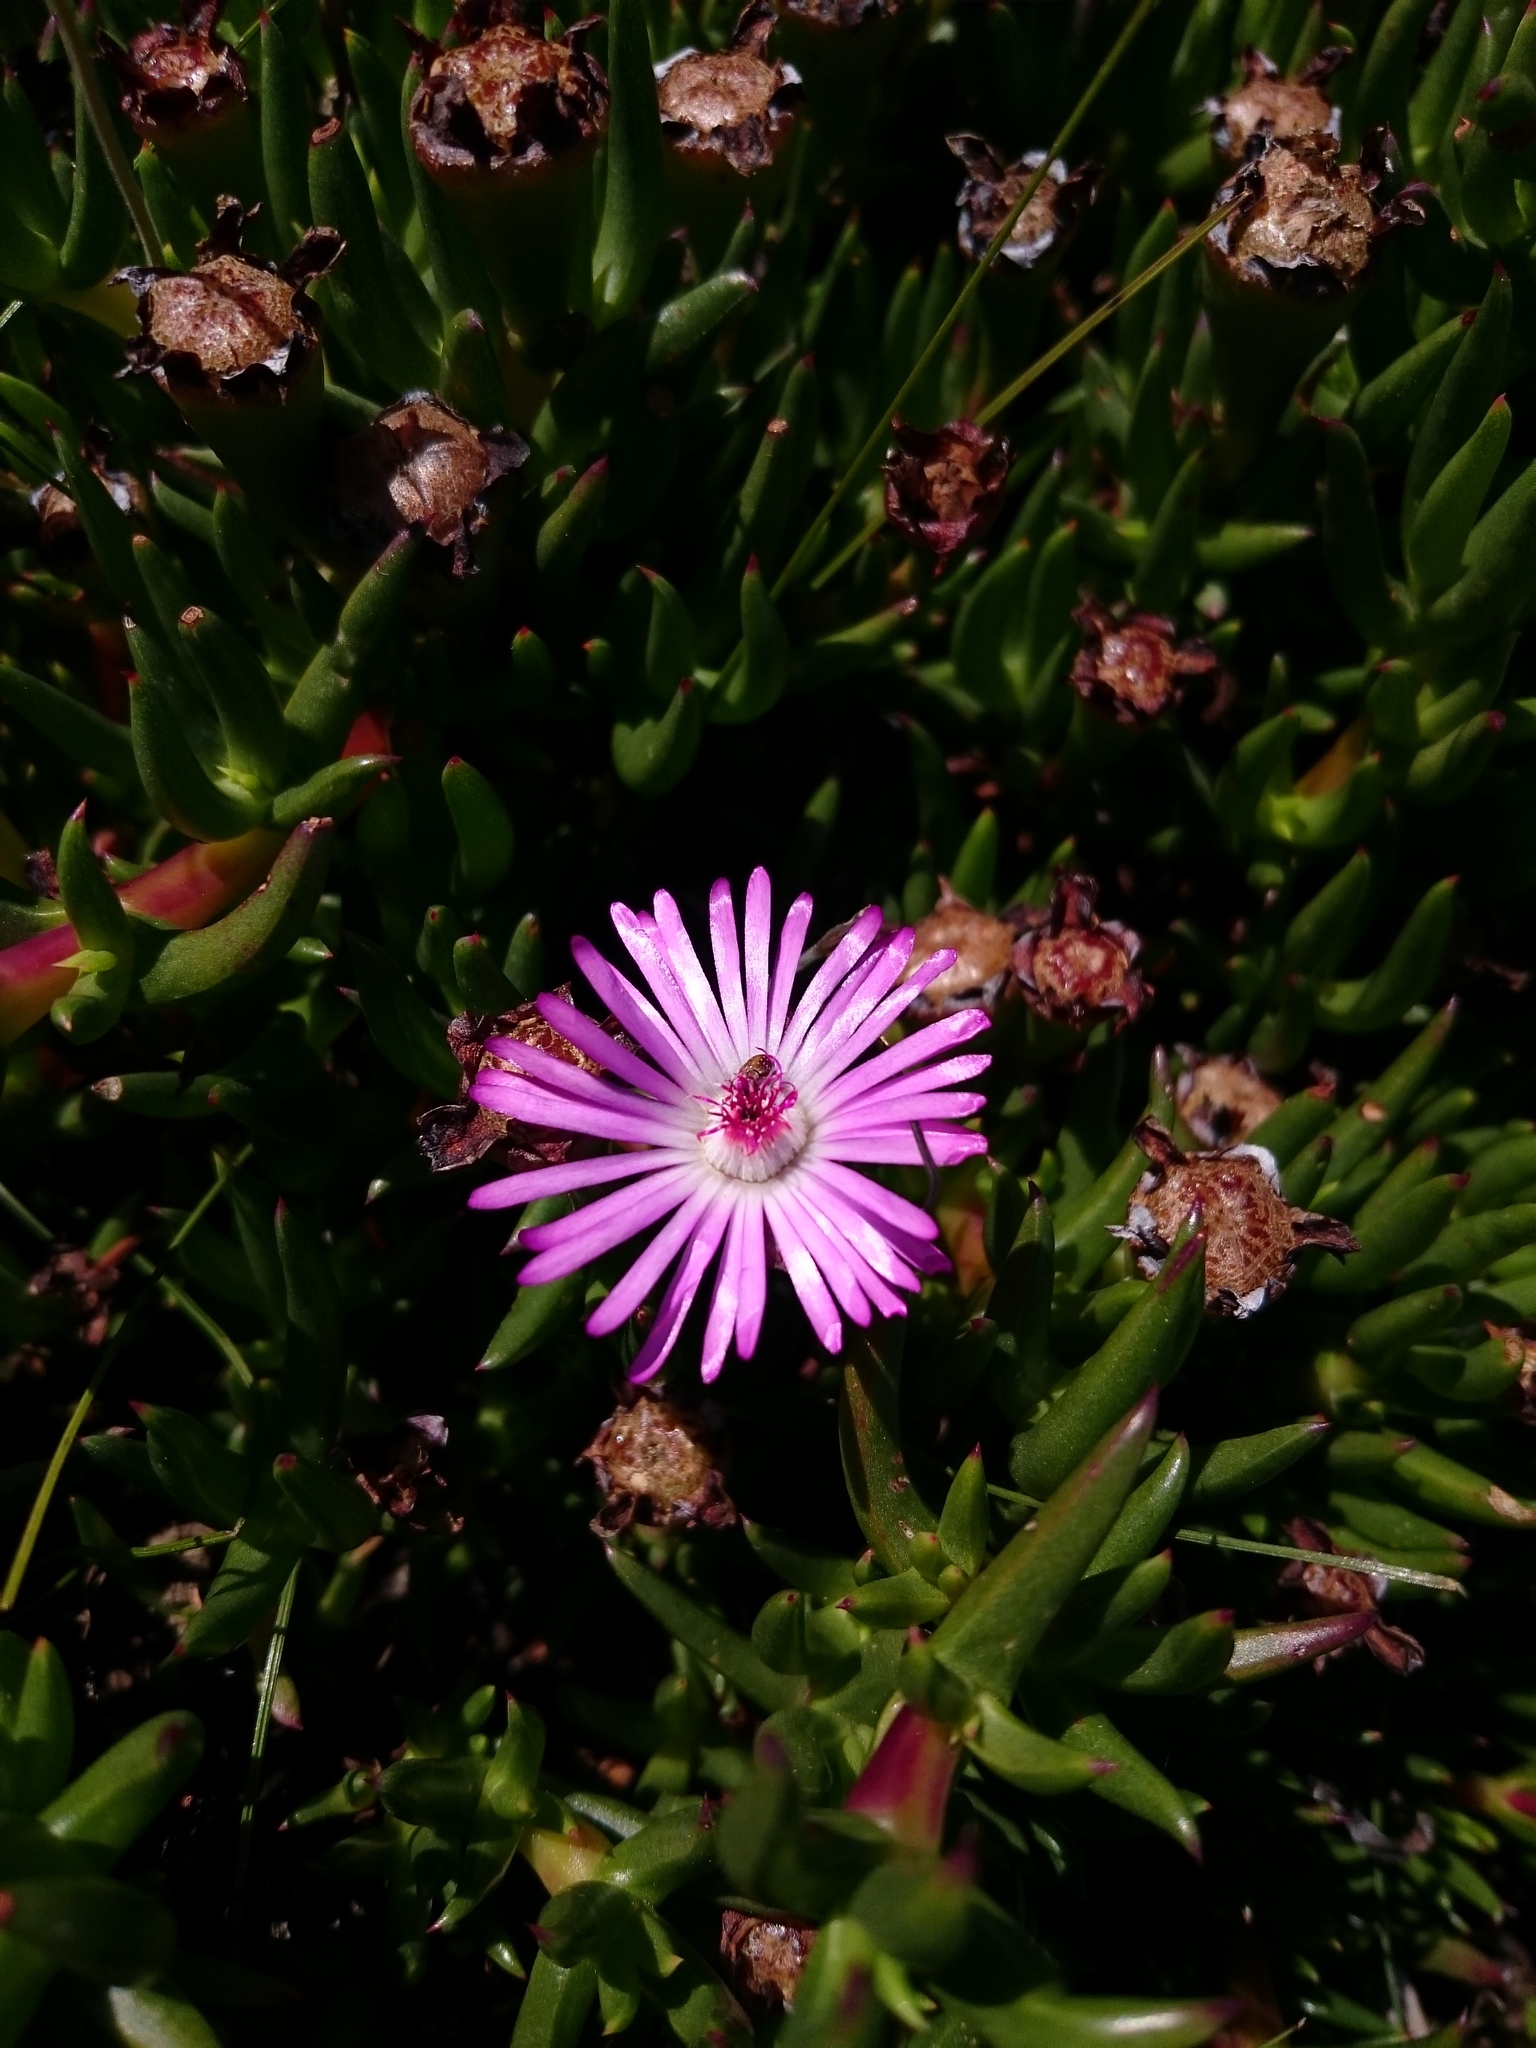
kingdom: Plantae
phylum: Tracheophyta
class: Magnoliopsida
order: Caryophyllales
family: Aizoaceae
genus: Lampranthus
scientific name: Lampranthus aduncus
